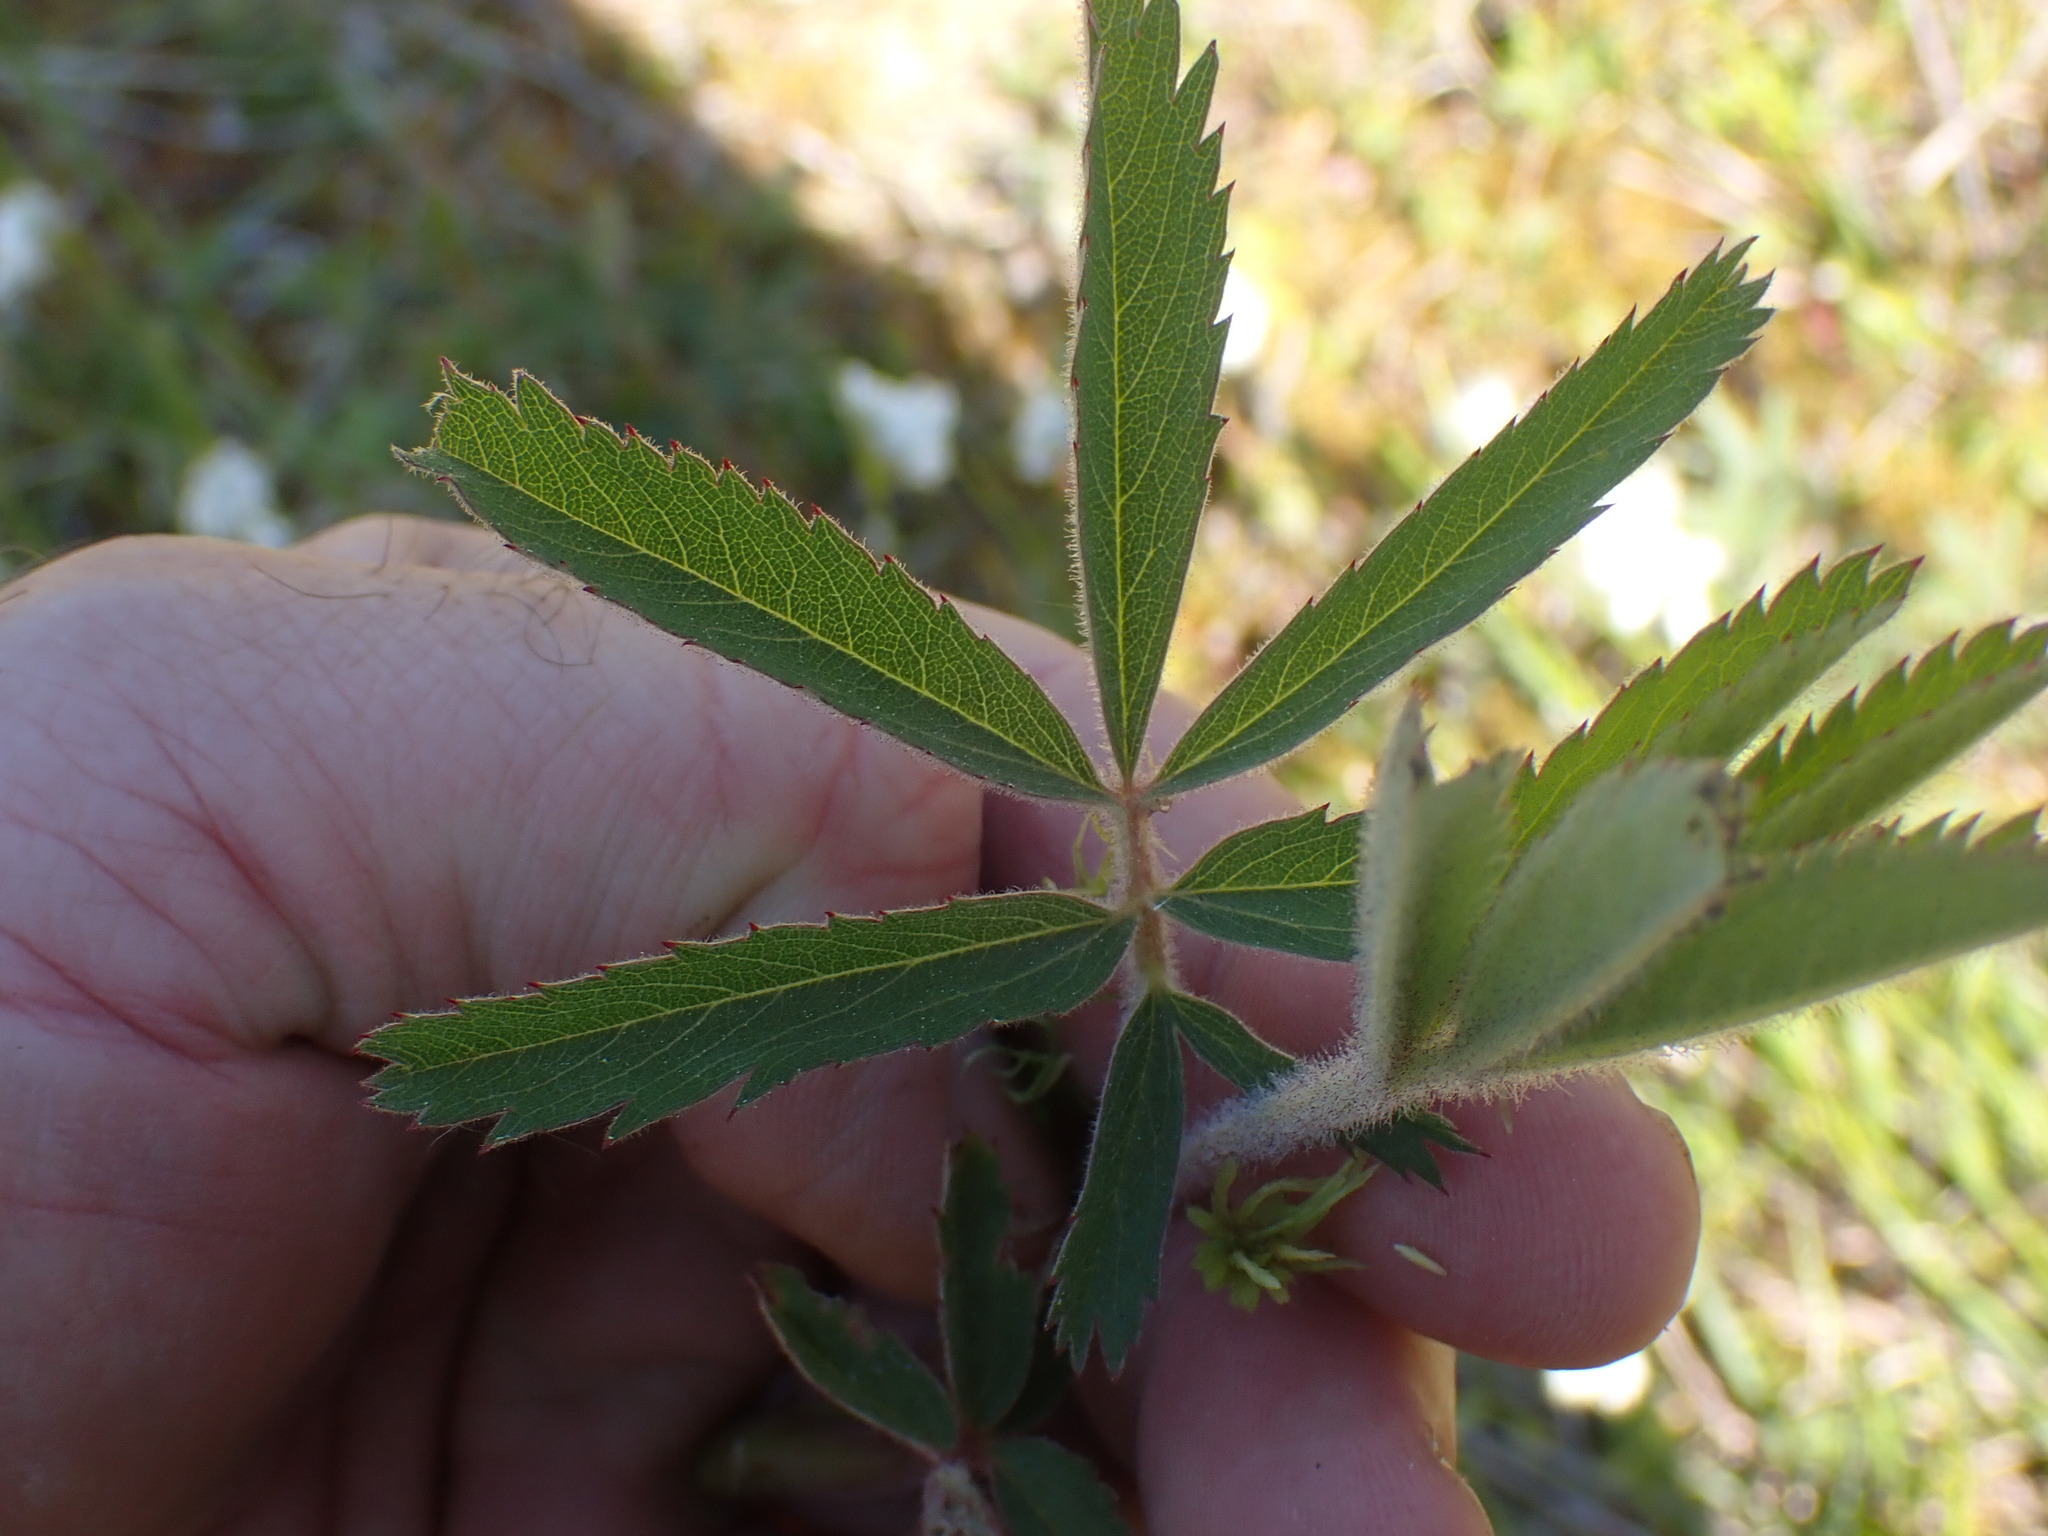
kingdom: Plantae
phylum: Tracheophyta
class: Magnoliopsida
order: Rosales
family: Rosaceae
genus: Comarum
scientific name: Comarum palustre
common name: Marsh cinquefoil
